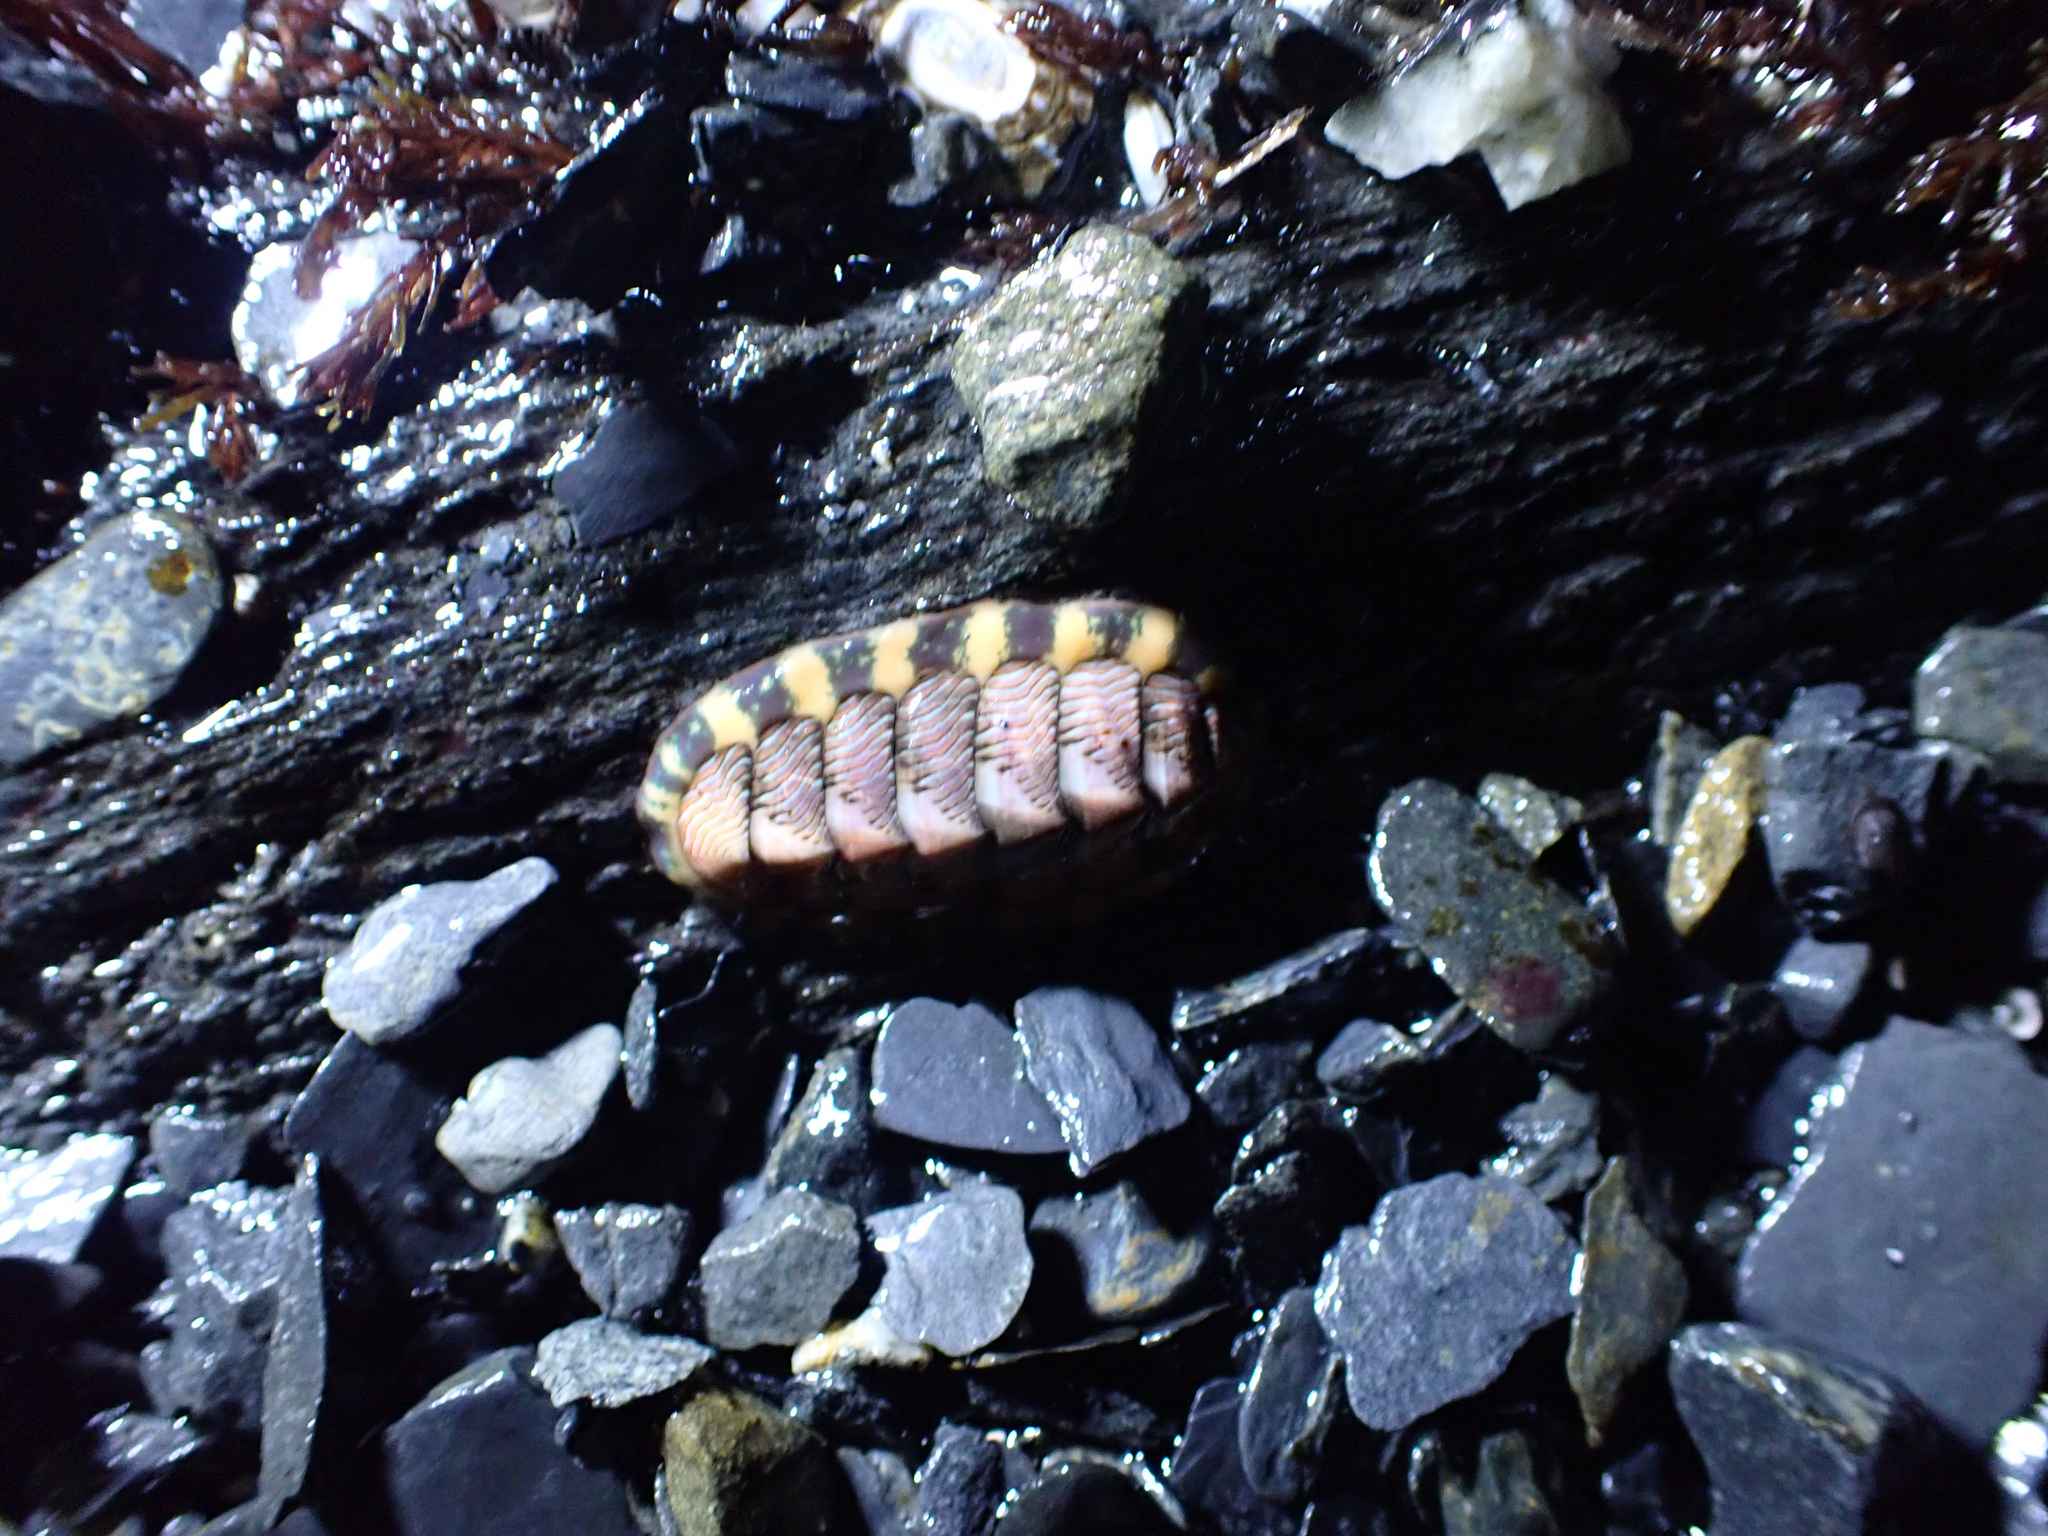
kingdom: Animalia
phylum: Mollusca
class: Polyplacophora
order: Chitonida
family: Tonicellidae
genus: Tonicella
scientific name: Tonicella lineata
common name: Lined chiton
